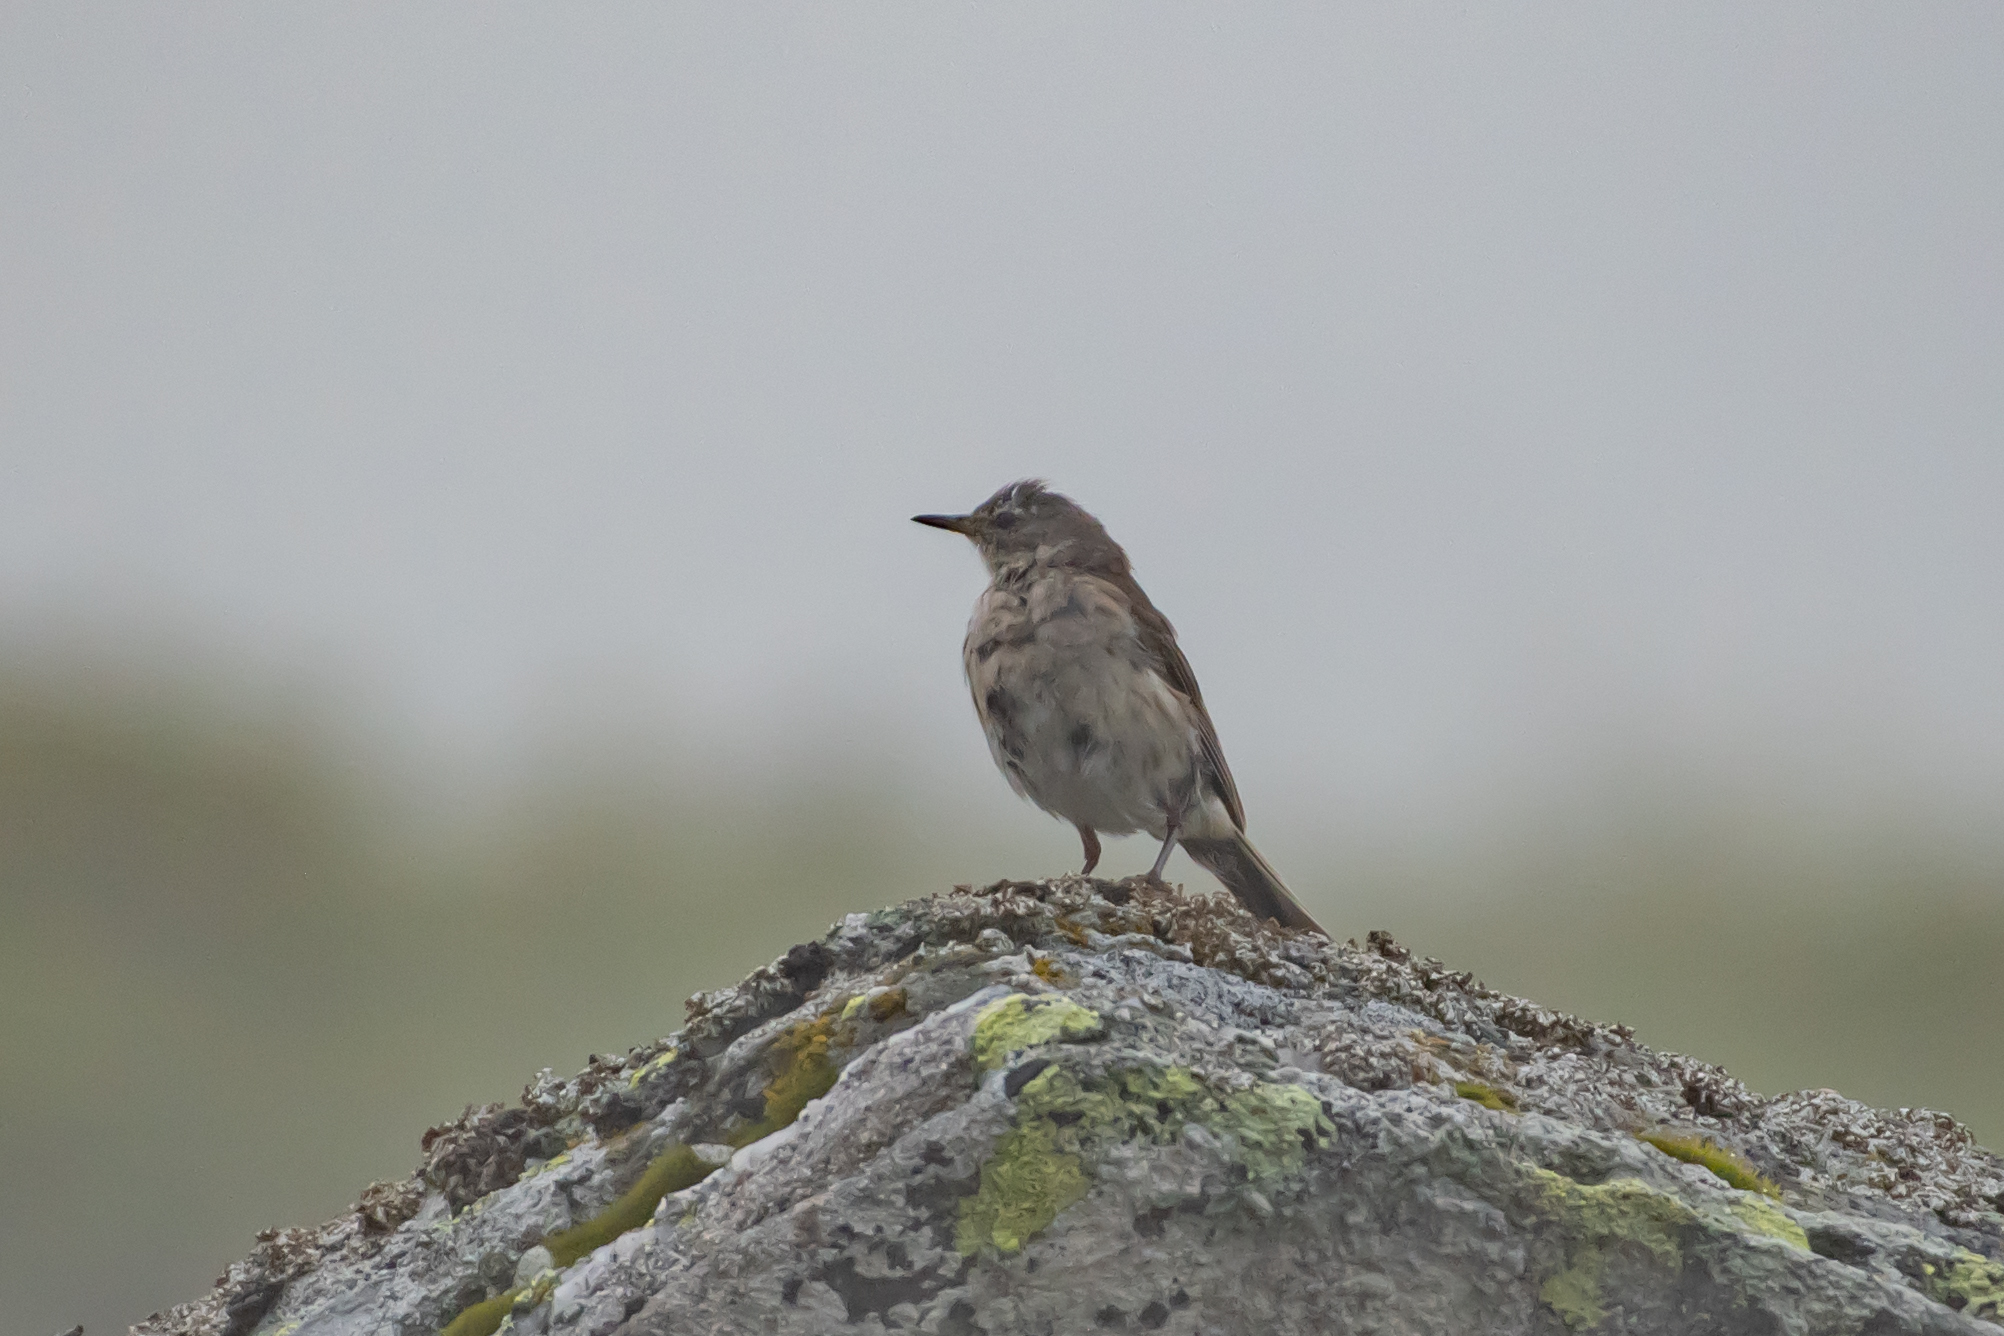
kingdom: Animalia
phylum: Chordata
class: Aves
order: Passeriformes
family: Motacillidae
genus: Anthus
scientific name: Anthus spinoletta
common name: Water pipit
